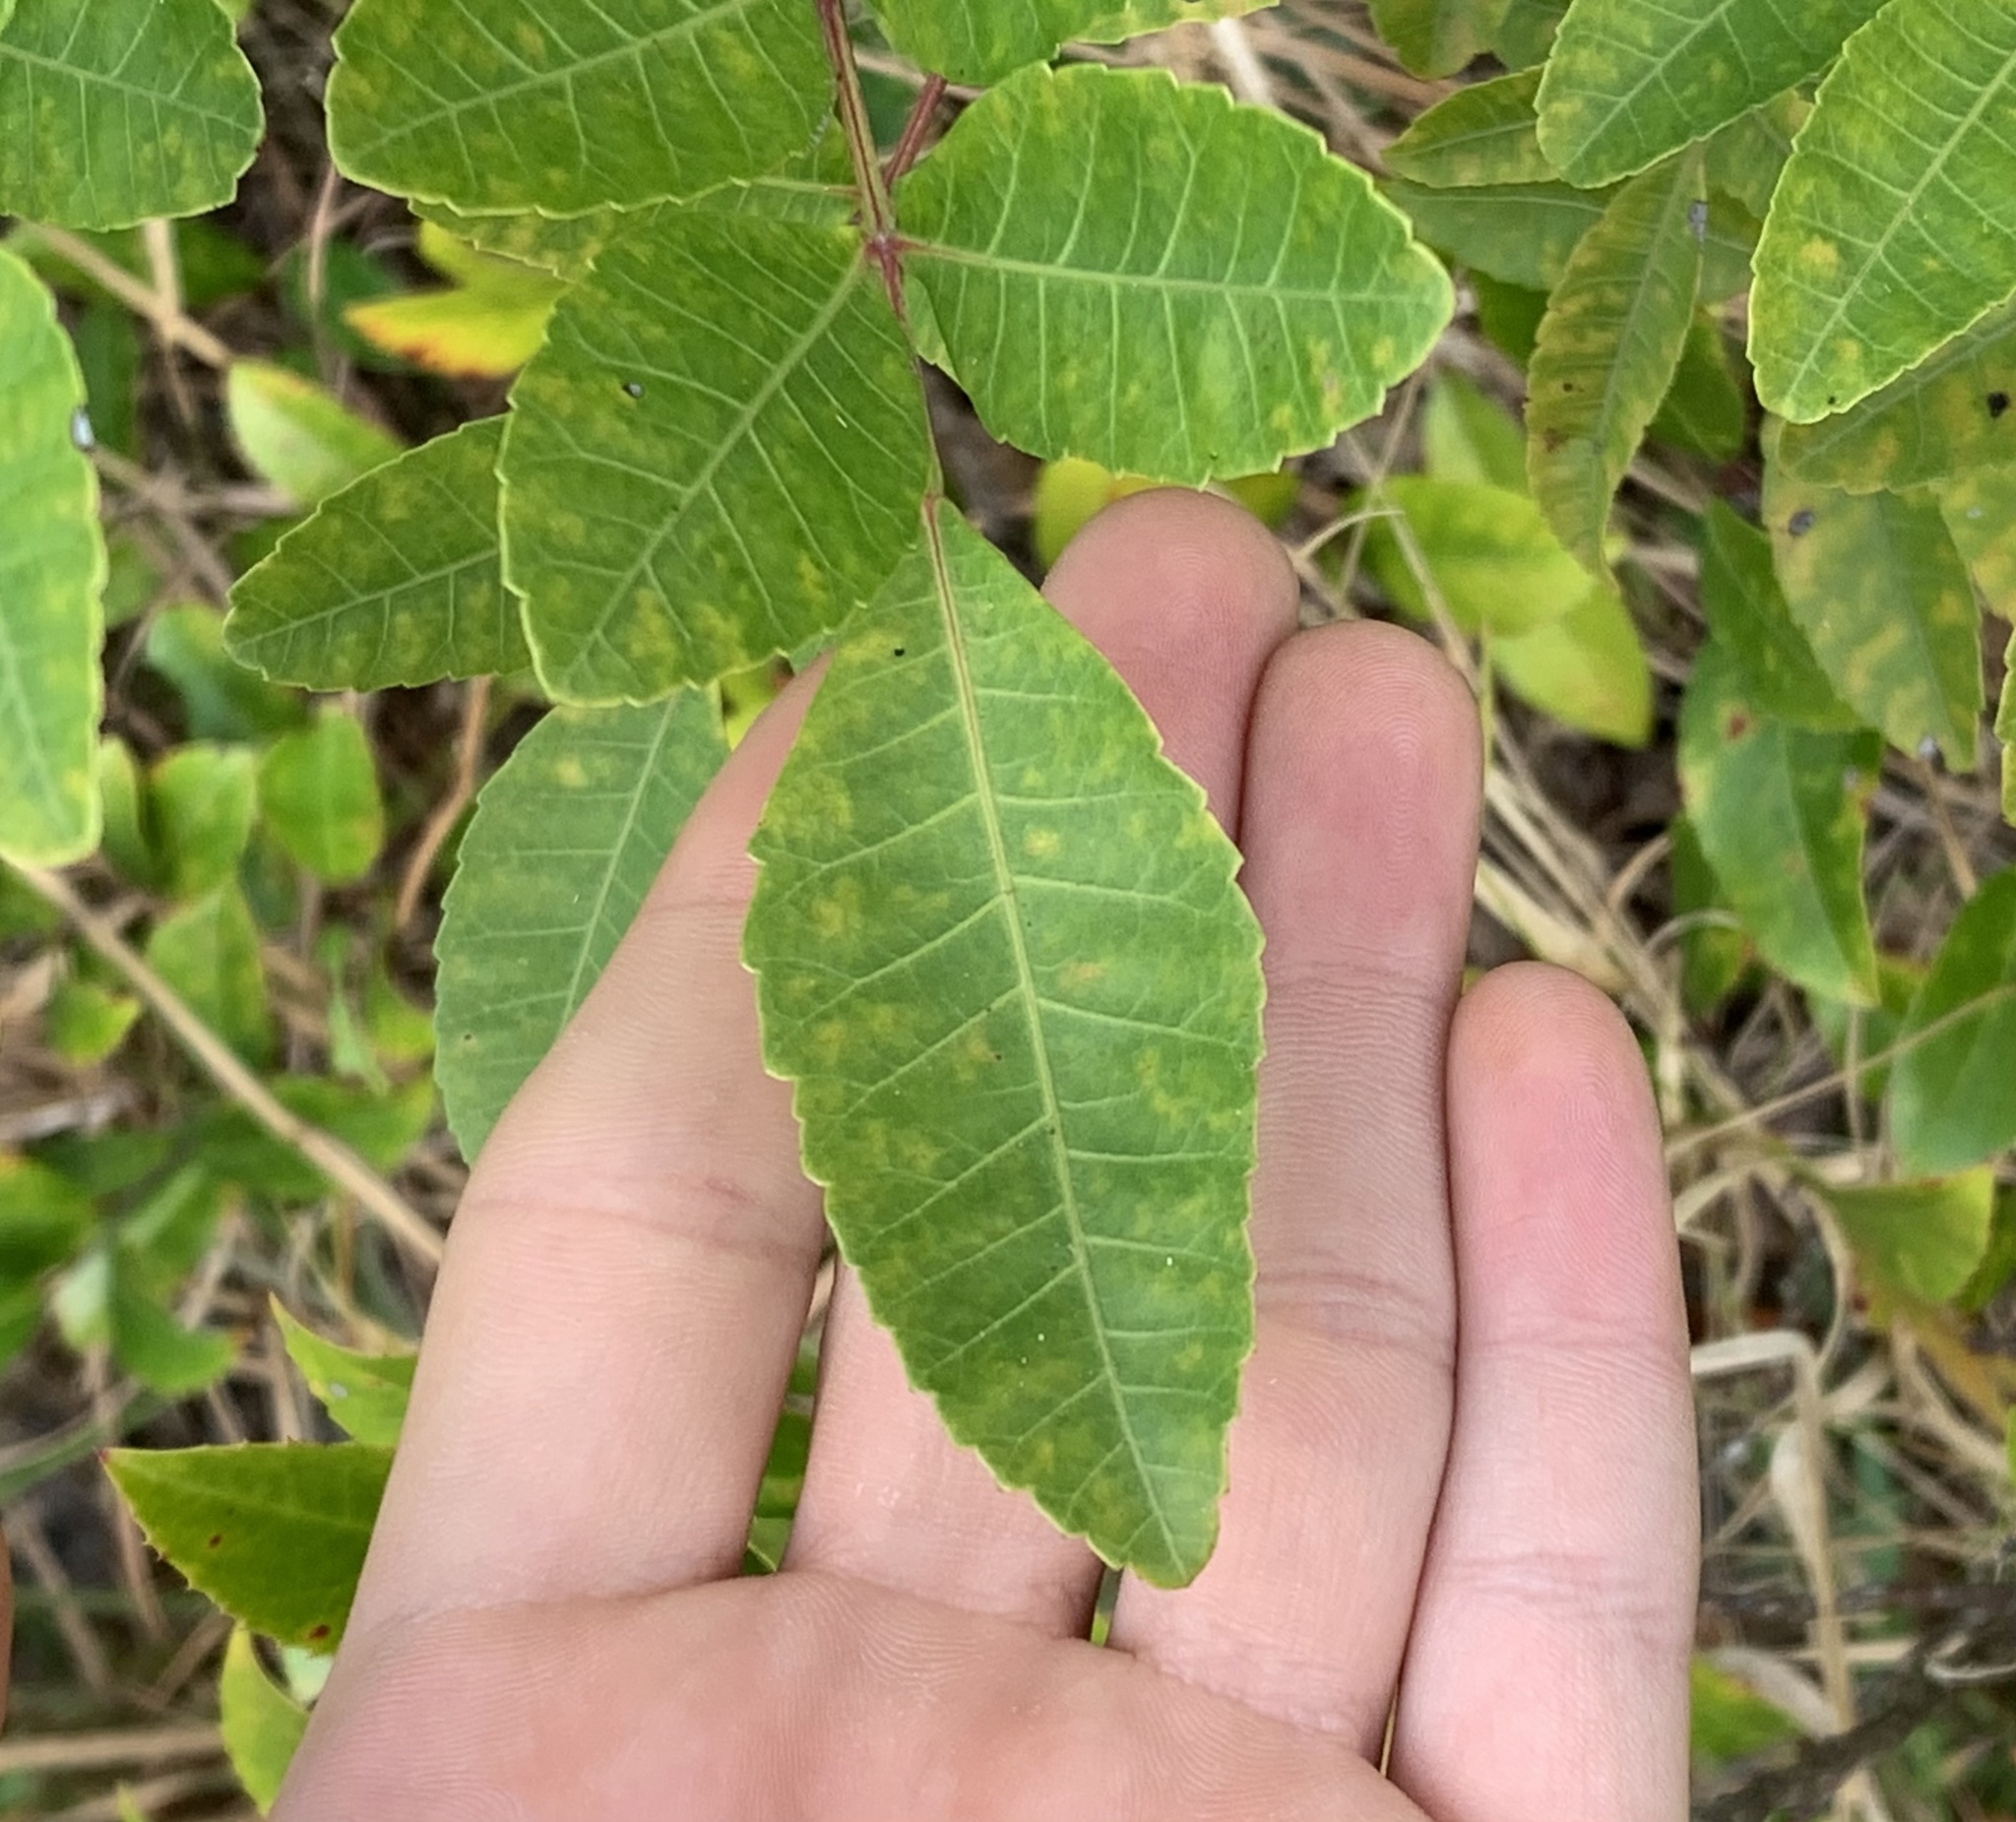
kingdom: Plantae
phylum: Tracheophyta
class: Magnoliopsida
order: Sapindales
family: Anacardiaceae
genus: Schinus
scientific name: Schinus terebinthifolia
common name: Brazilian peppertree
